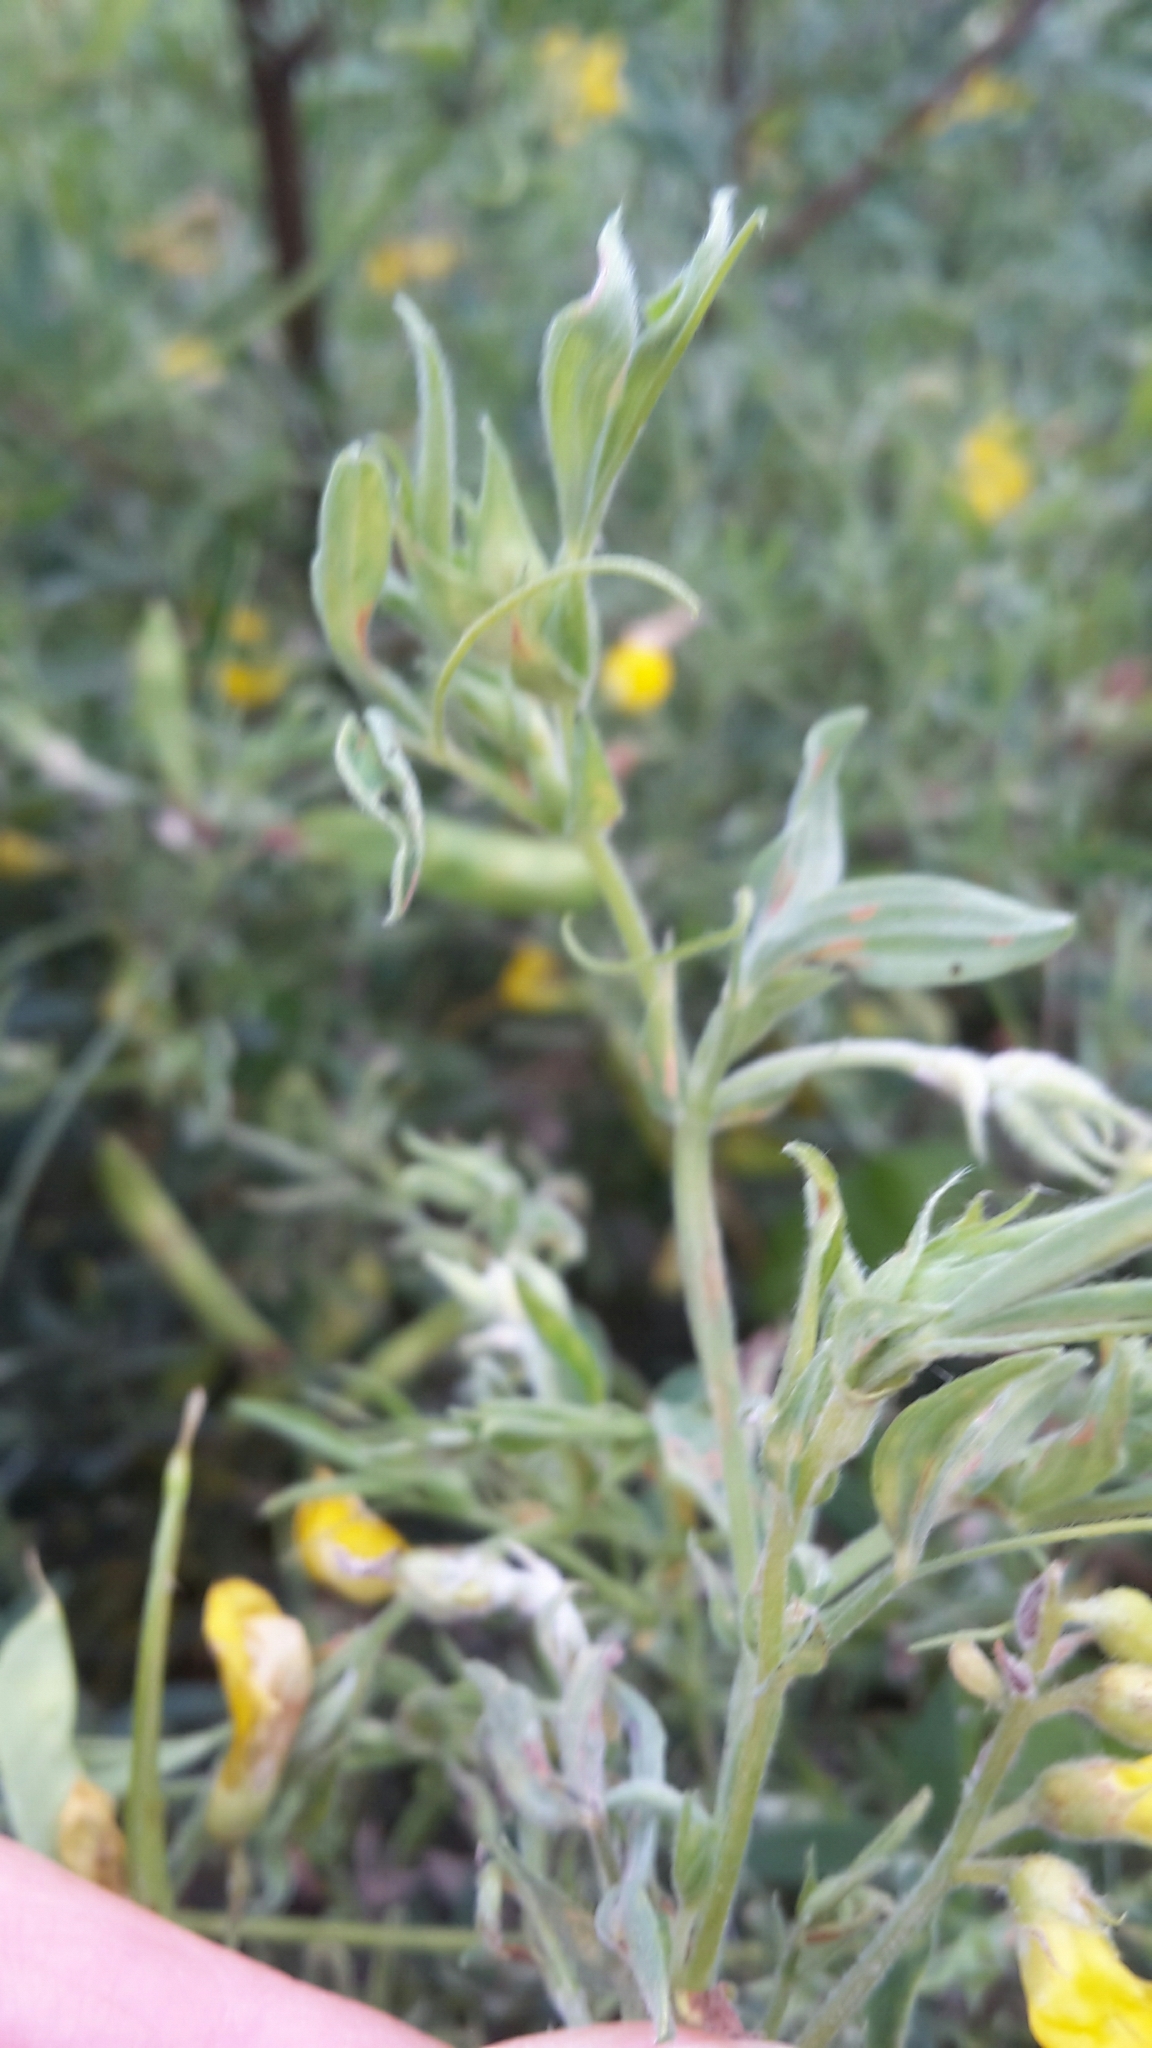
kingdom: Plantae
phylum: Tracheophyta
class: Magnoliopsida
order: Fabales
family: Fabaceae
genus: Lathyrus
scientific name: Lathyrus pratensis
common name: Meadow vetchling
